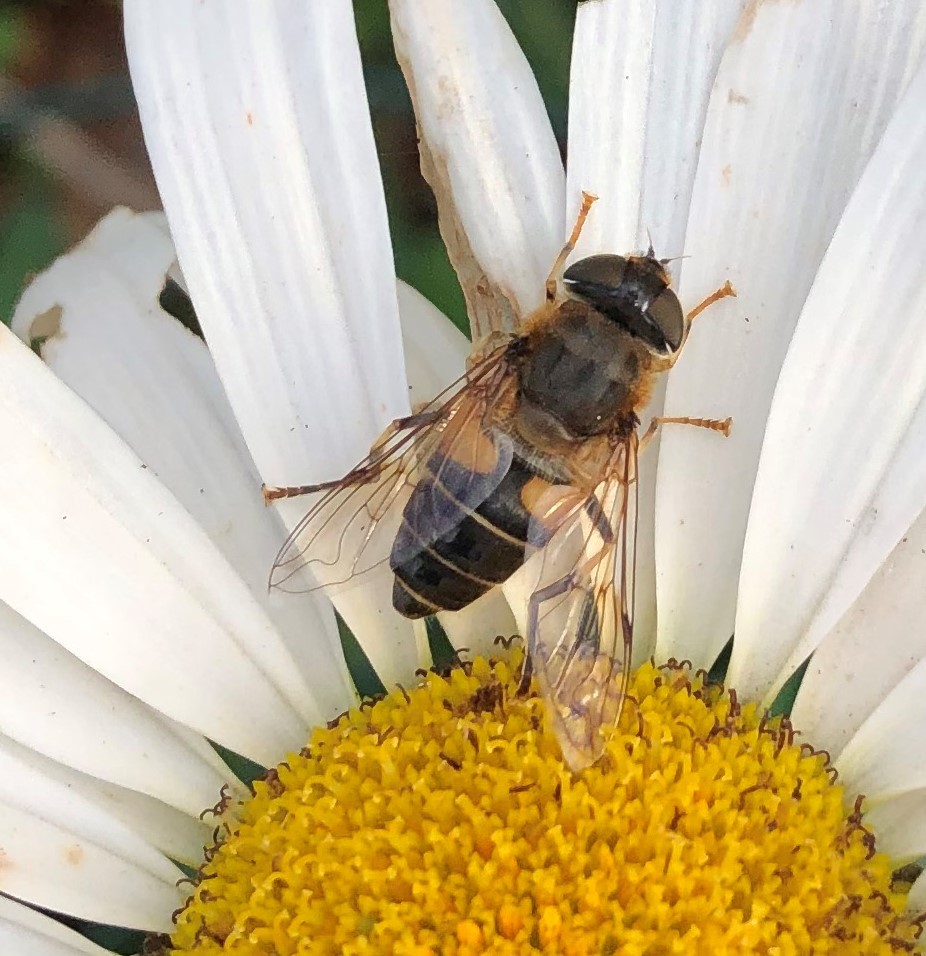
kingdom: Animalia
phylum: Arthropoda
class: Insecta
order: Diptera
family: Syrphidae
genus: Eristalis
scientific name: Eristalis pertinax
